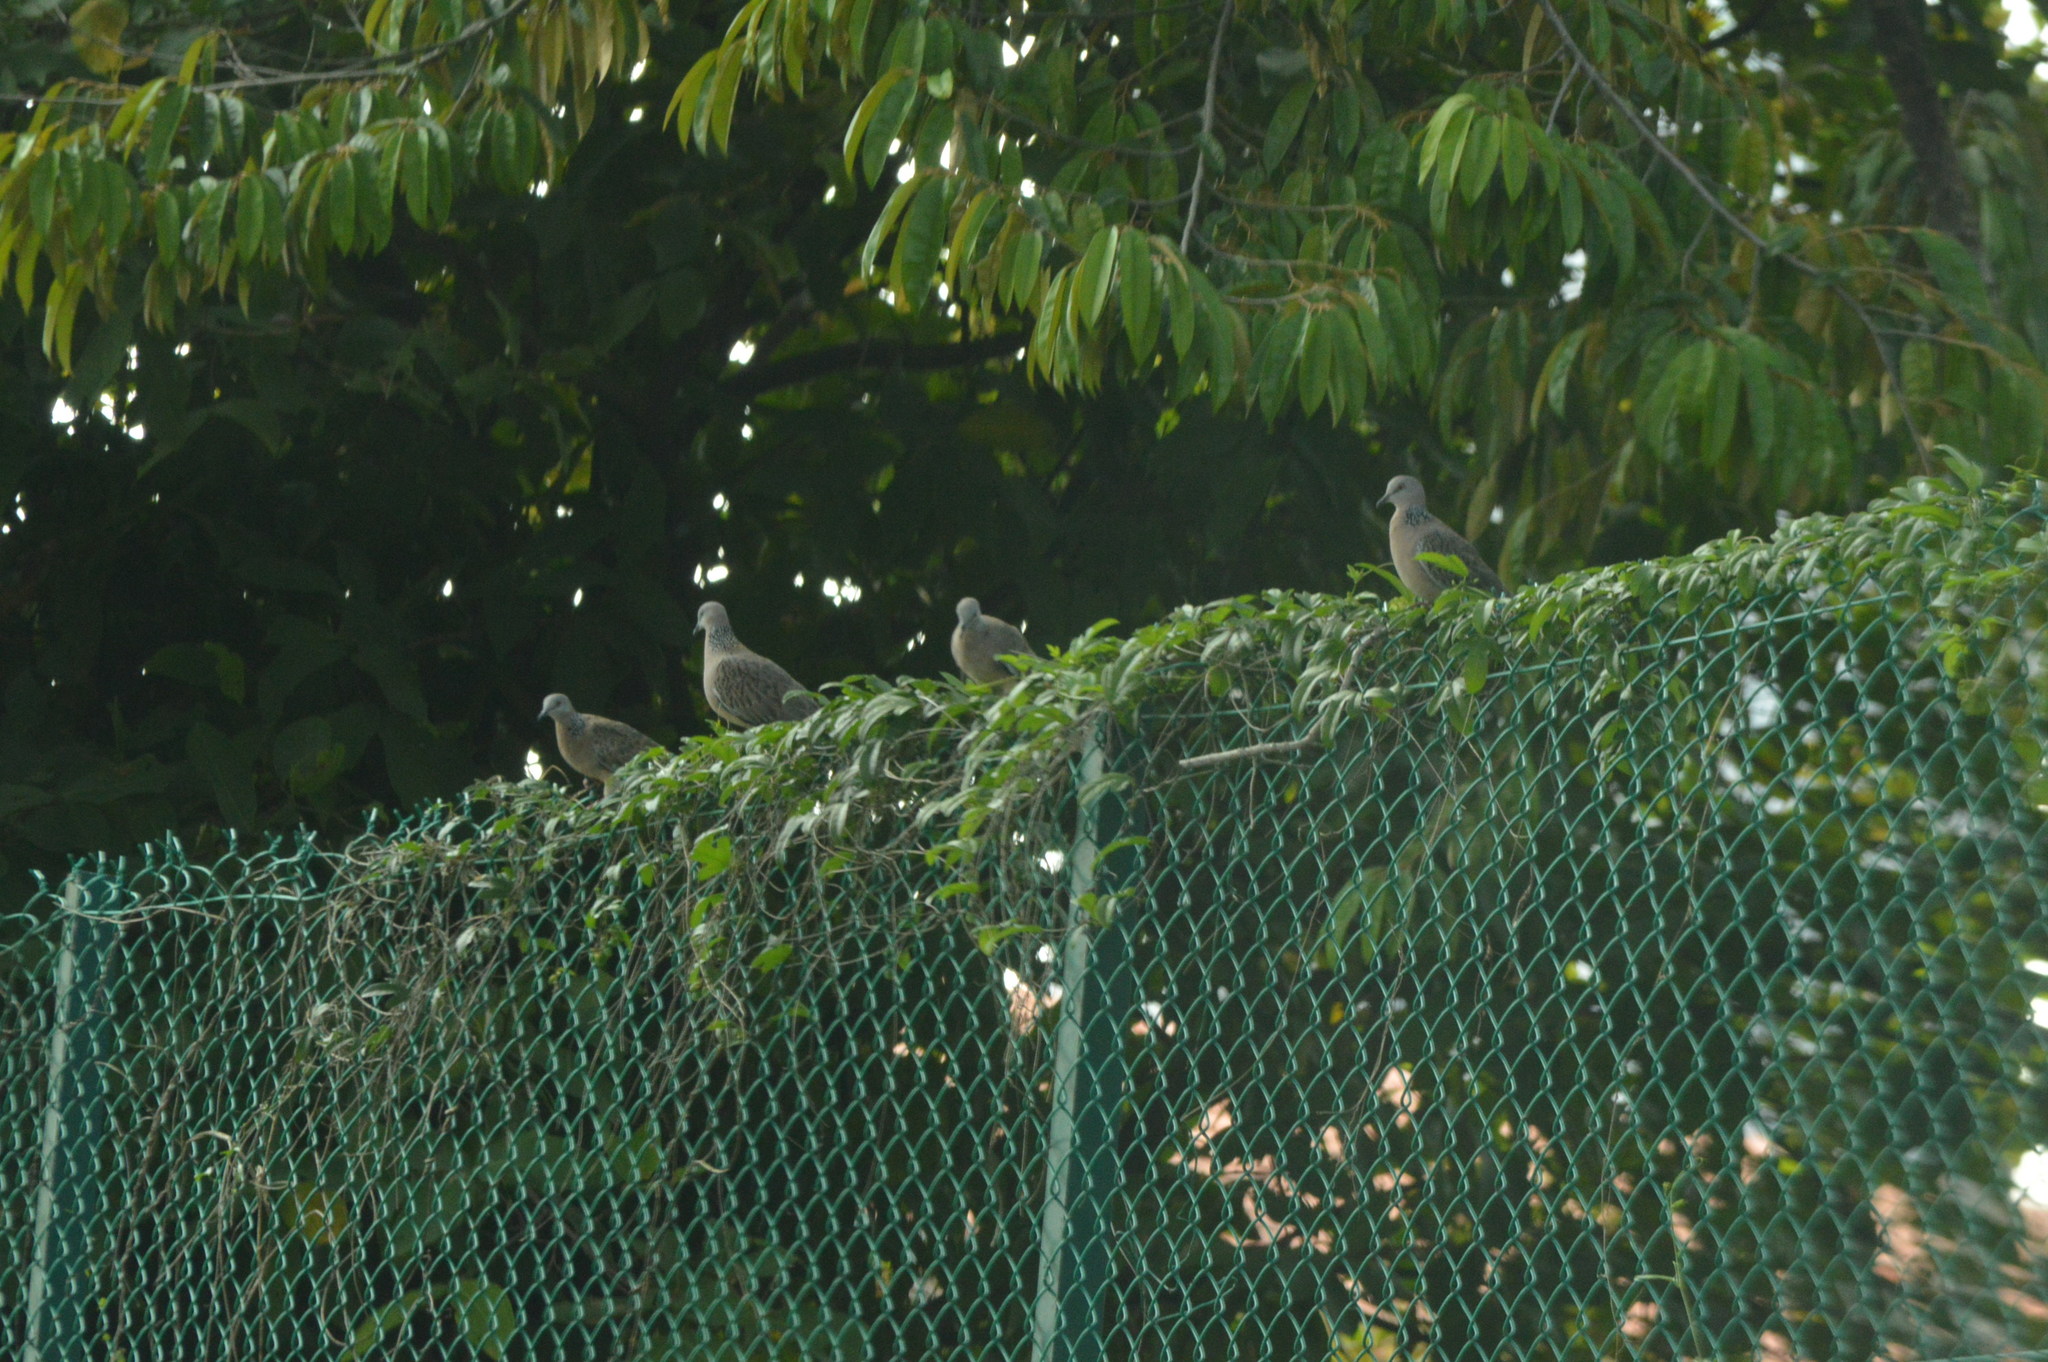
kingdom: Animalia
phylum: Chordata
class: Aves
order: Columbiformes
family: Columbidae
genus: Spilopelia
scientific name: Spilopelia chinensis
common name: Spotted dove
